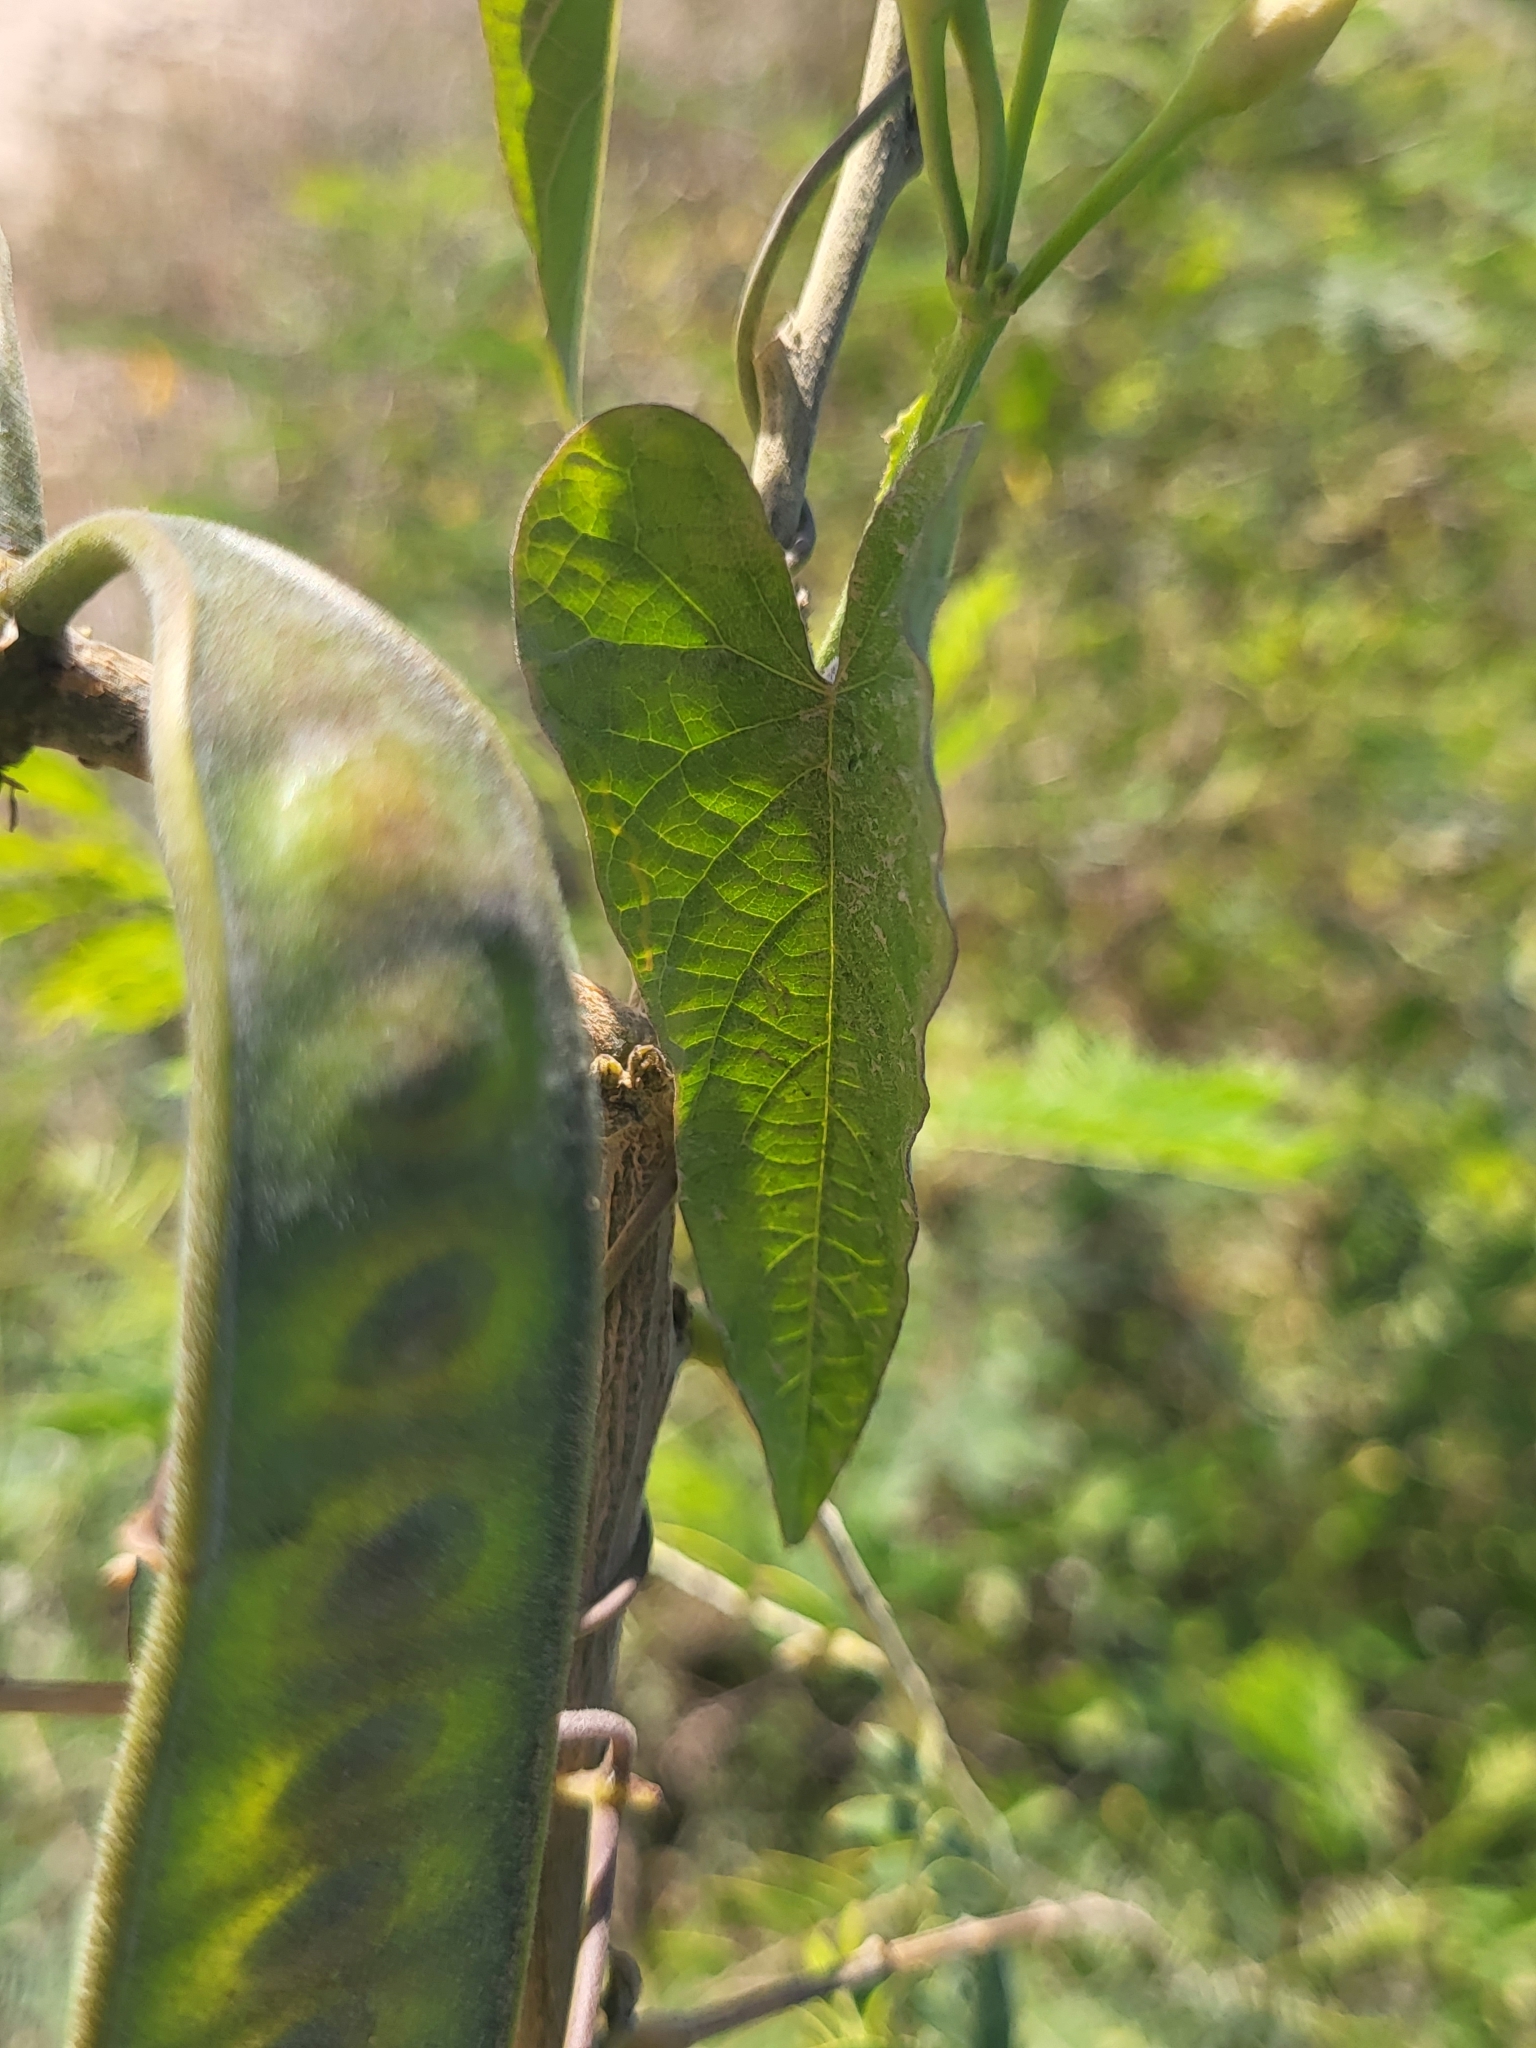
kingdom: Plantae
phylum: Tracheophyta
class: Magnoliopsida
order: Solanales
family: Convolvulaceae
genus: Camonea
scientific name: Camonea umbellata
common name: Hogvine
